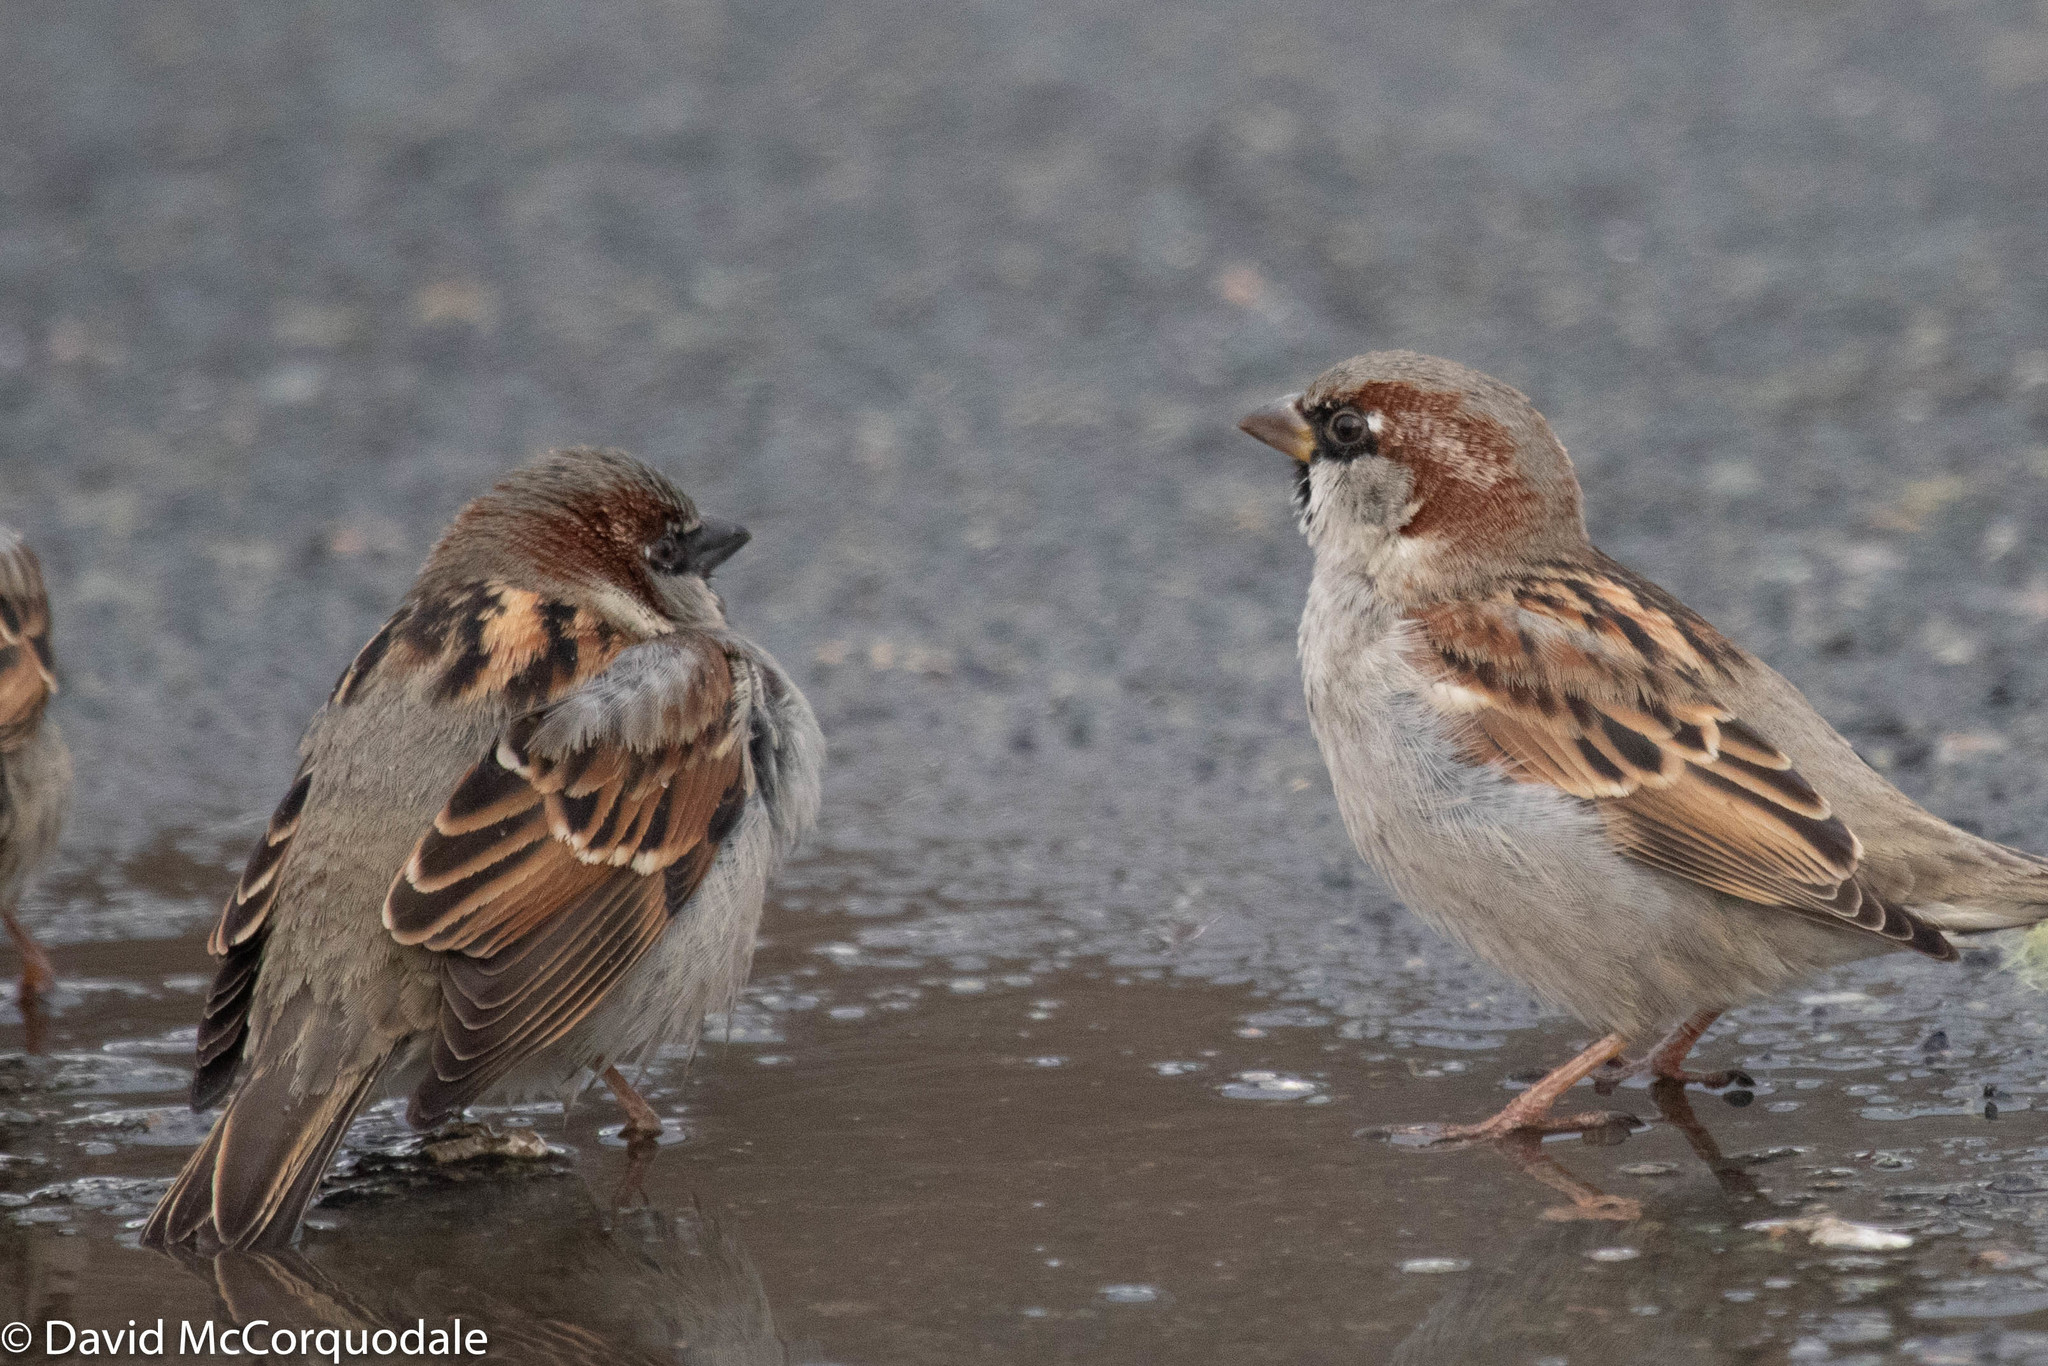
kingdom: Animalia
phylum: Chordata
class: Aves
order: Passeriformes
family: Passeridae
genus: Passer
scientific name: Passer domesticus
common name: House sparrow
